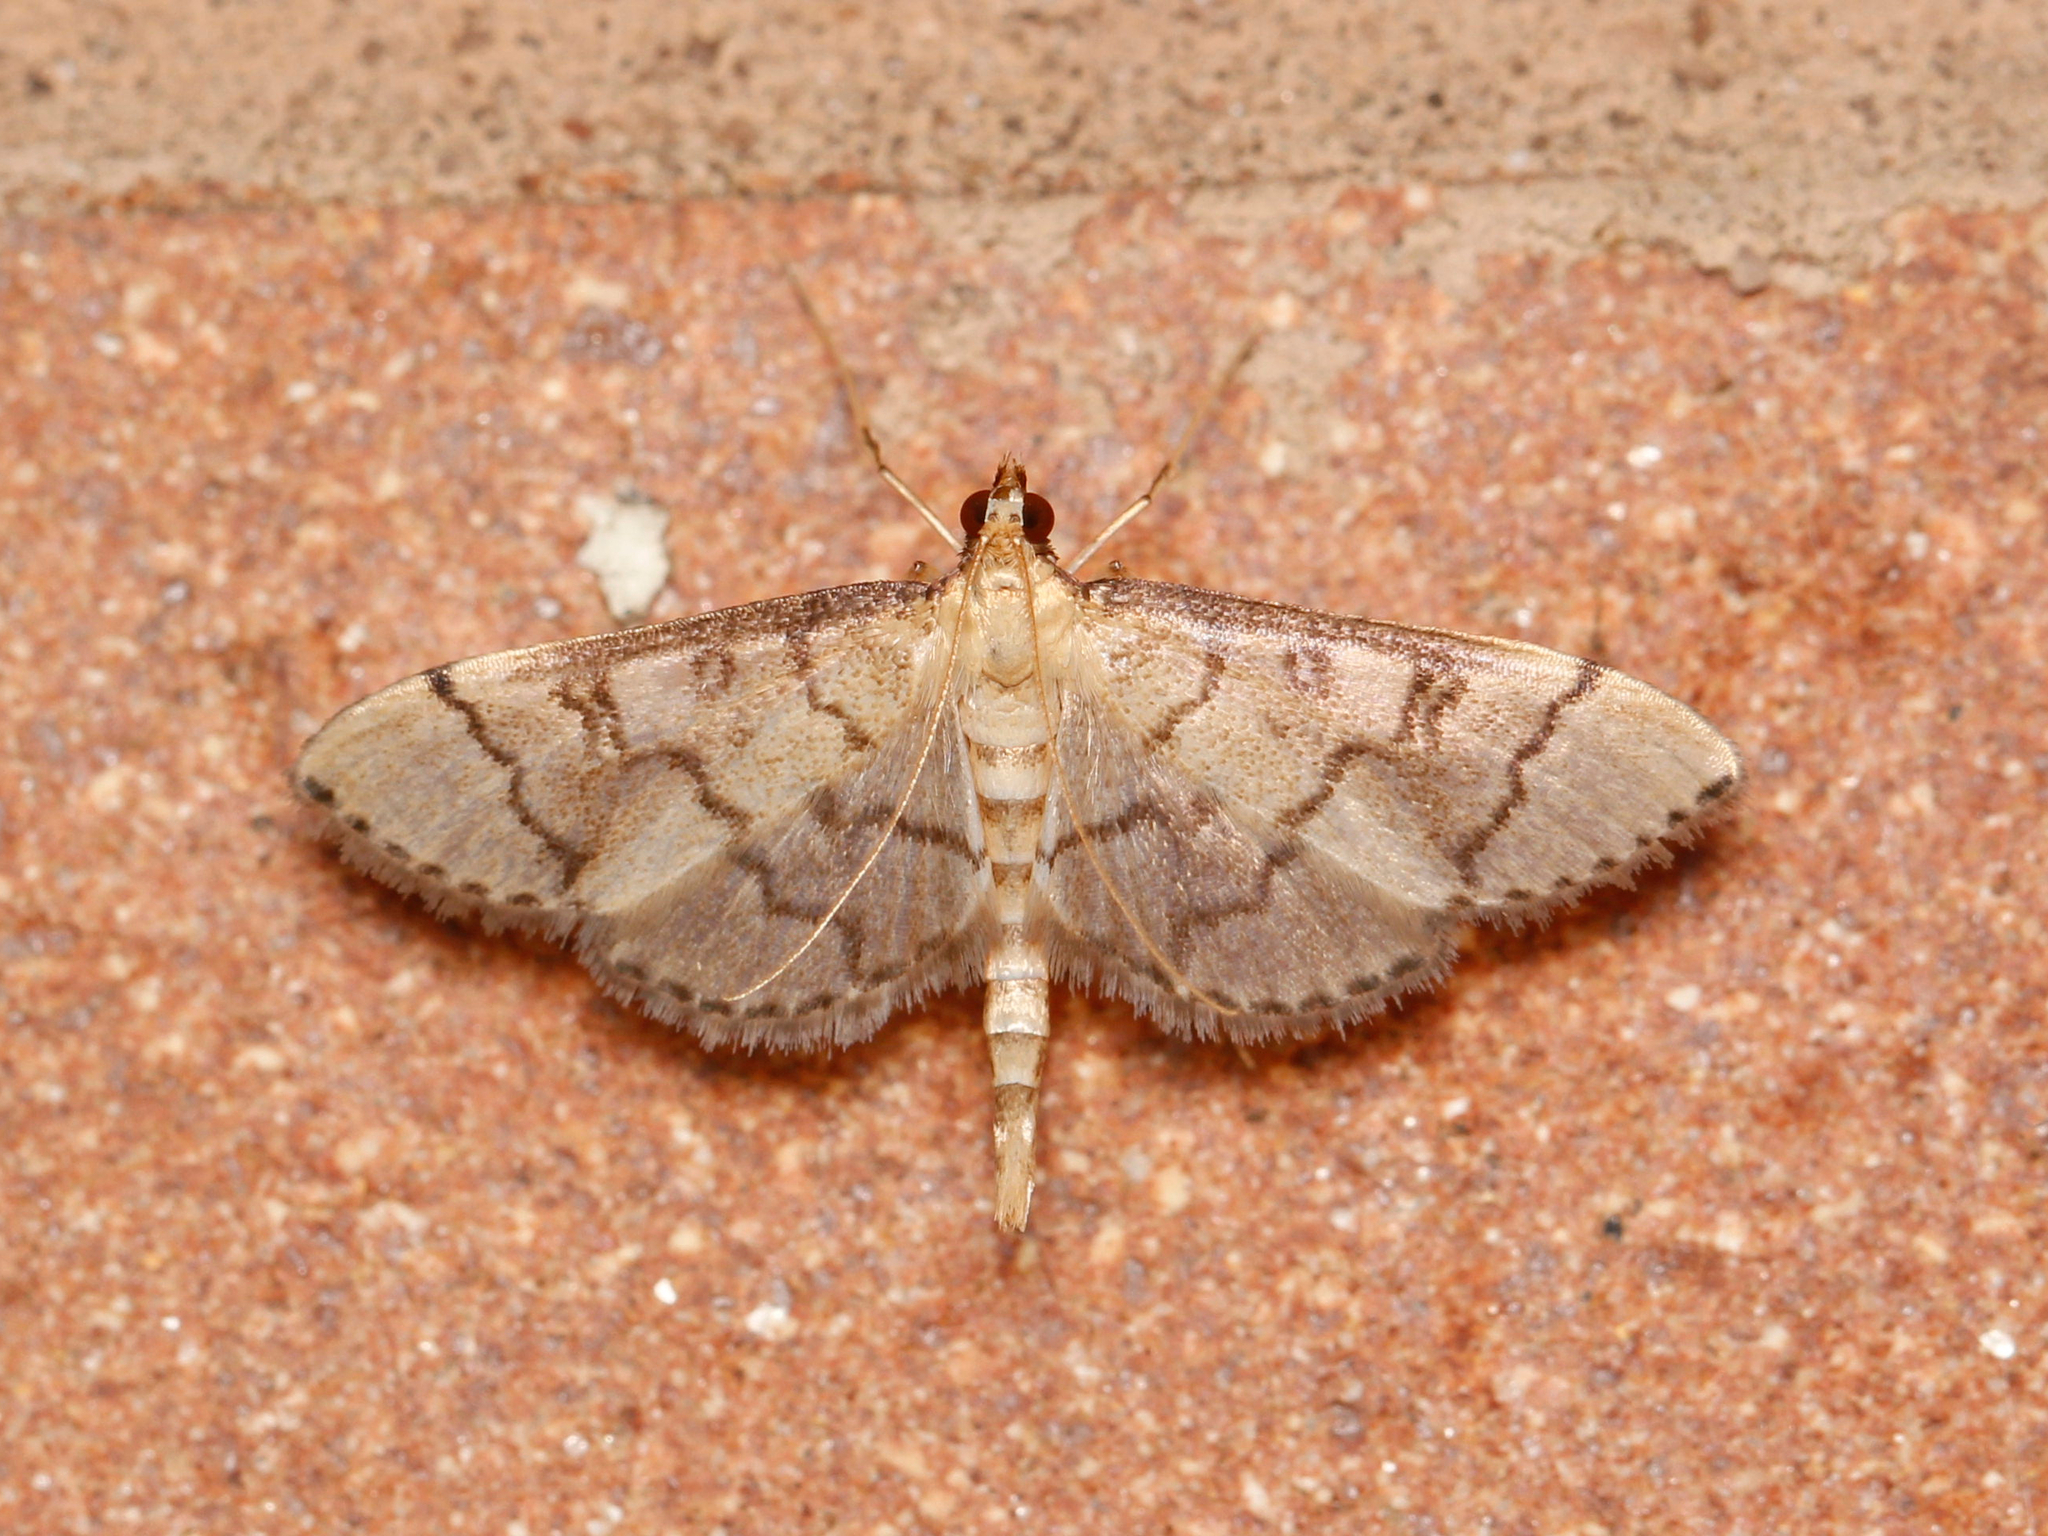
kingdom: Animalia
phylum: Arthropoda
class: Insecta
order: Lepidoptera
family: Crambidae
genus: Lamprosema
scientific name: Lamprosema Blepharomastix ranalis
